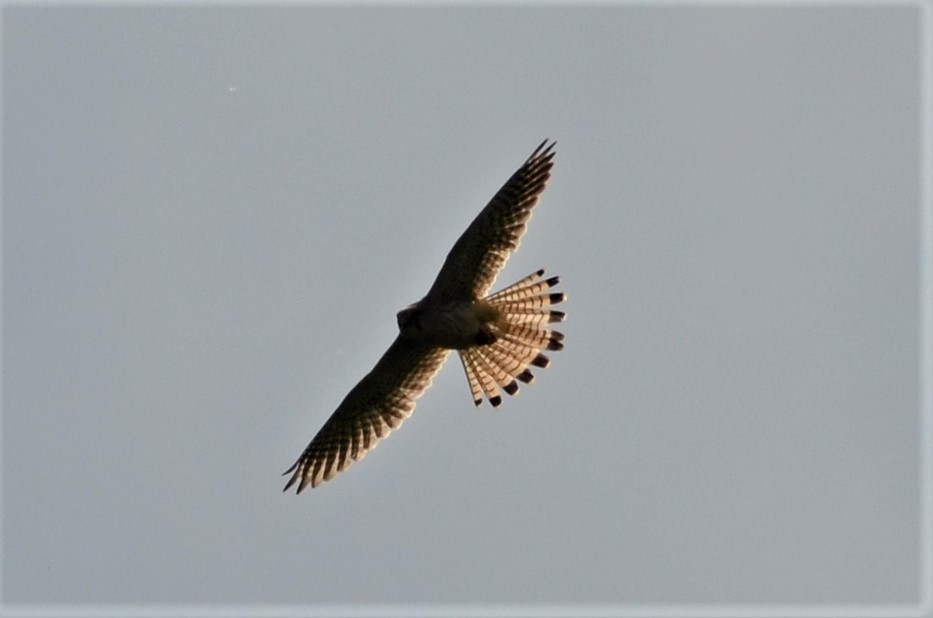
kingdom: Animalia
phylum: Chordata
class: Aves
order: Falconiformes
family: Falconidae
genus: Falco
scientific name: Falco tinnunculus
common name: Common kestrel
